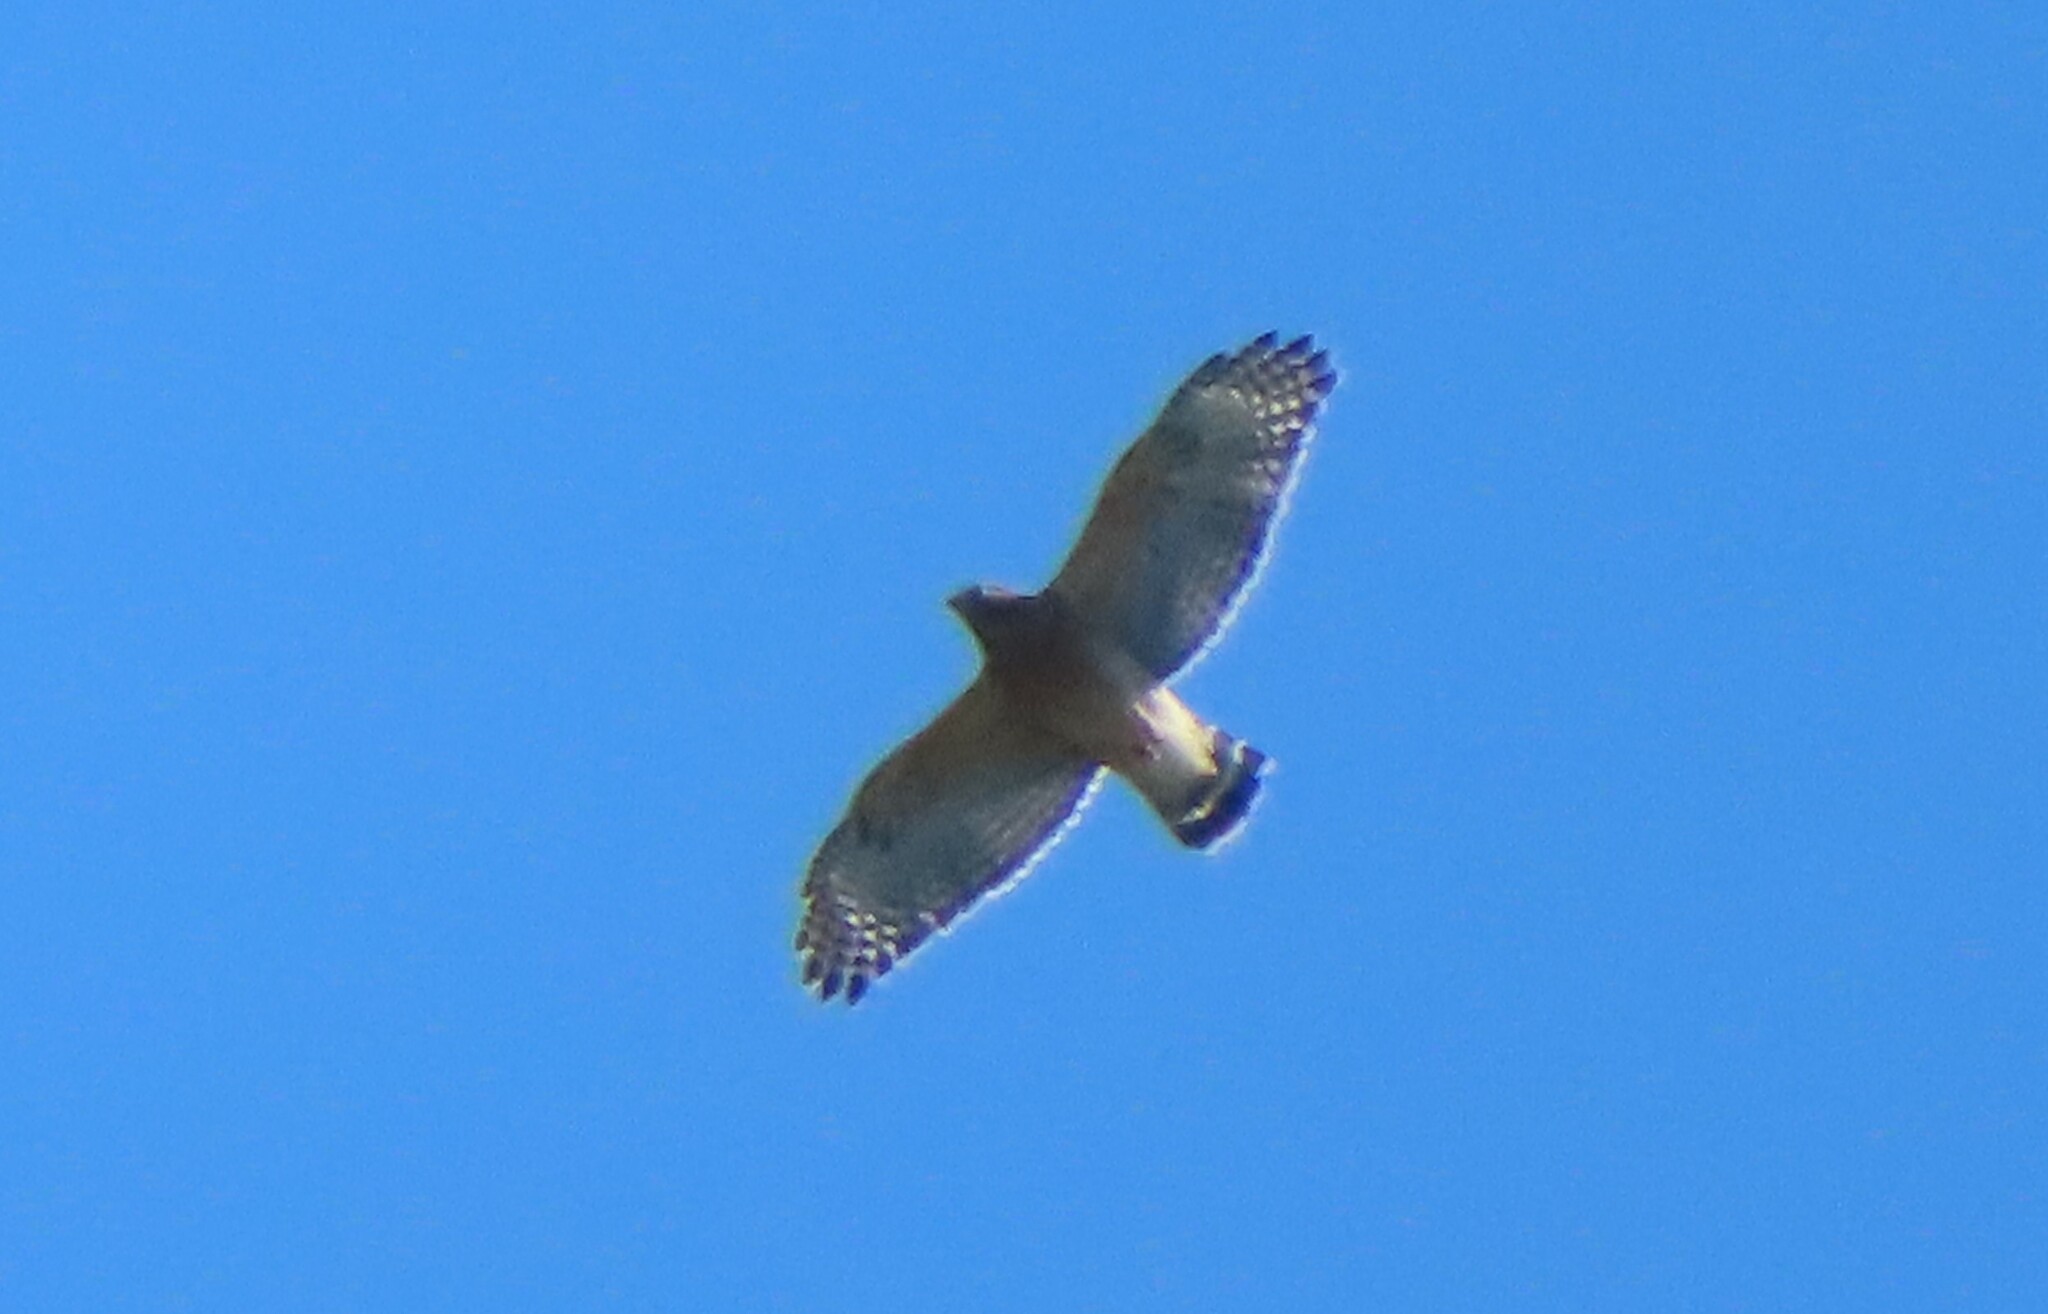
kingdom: Animalia
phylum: Chordata
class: Aves
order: Accipitriformes
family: Accipitridae
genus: Buteo
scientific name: Buteo lineatus
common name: Red-shouldered hawk
